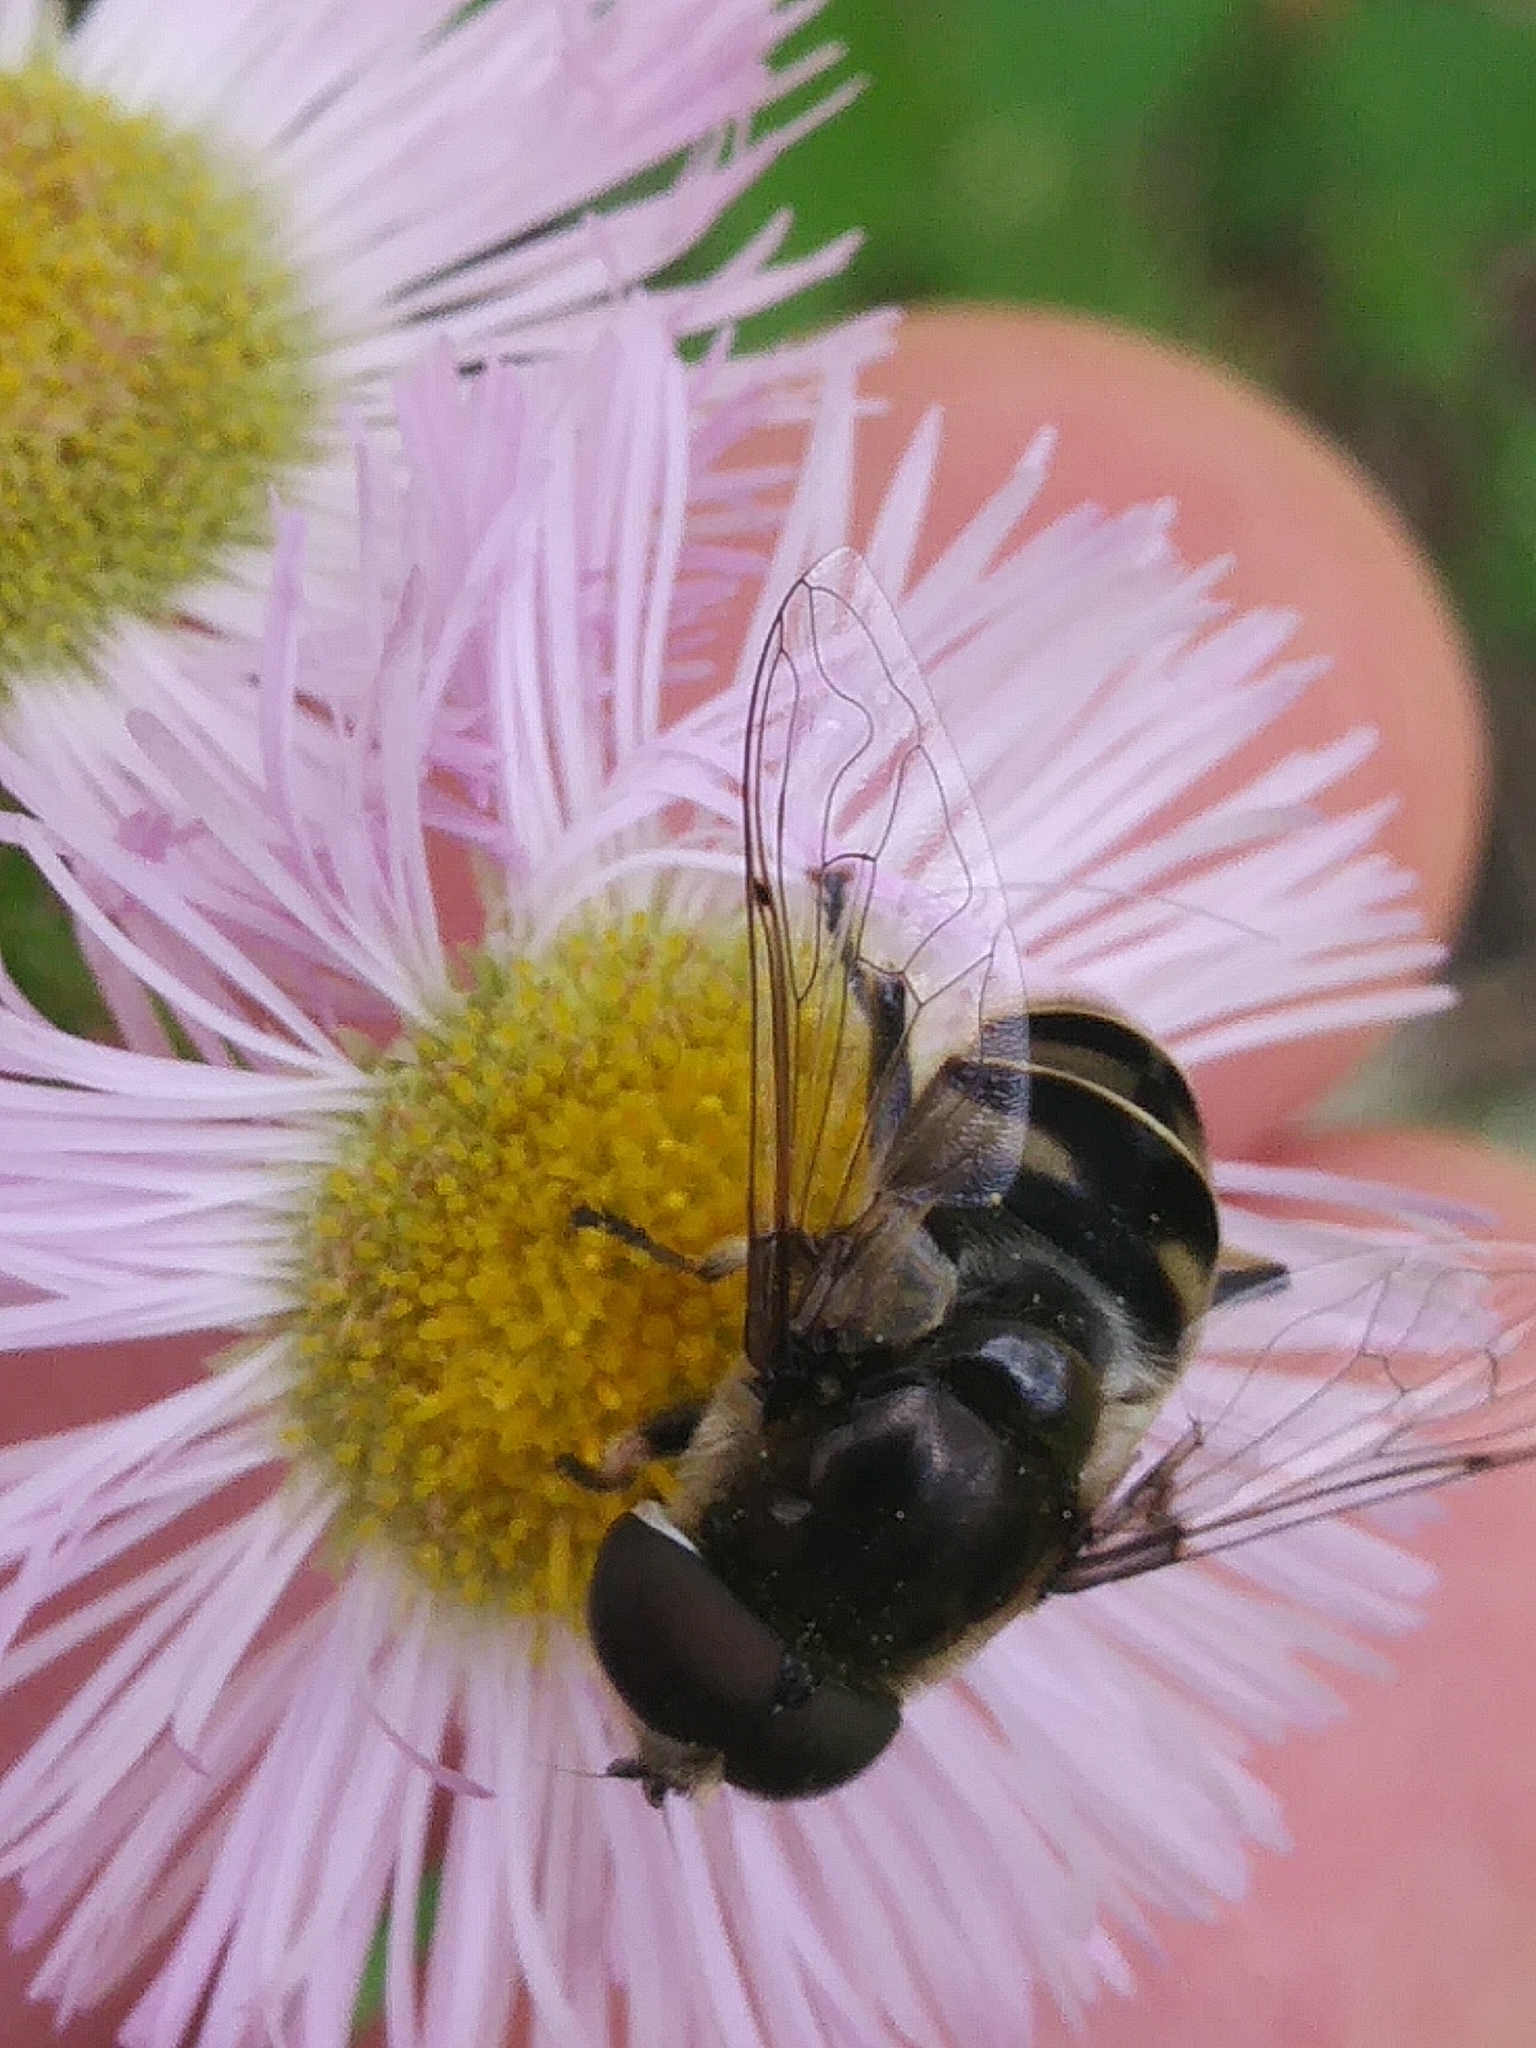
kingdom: Animalia
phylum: Arthropoda
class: Insecta
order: Diptera
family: Syrphidae
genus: Eristalis
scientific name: Eristalis dimidiata
